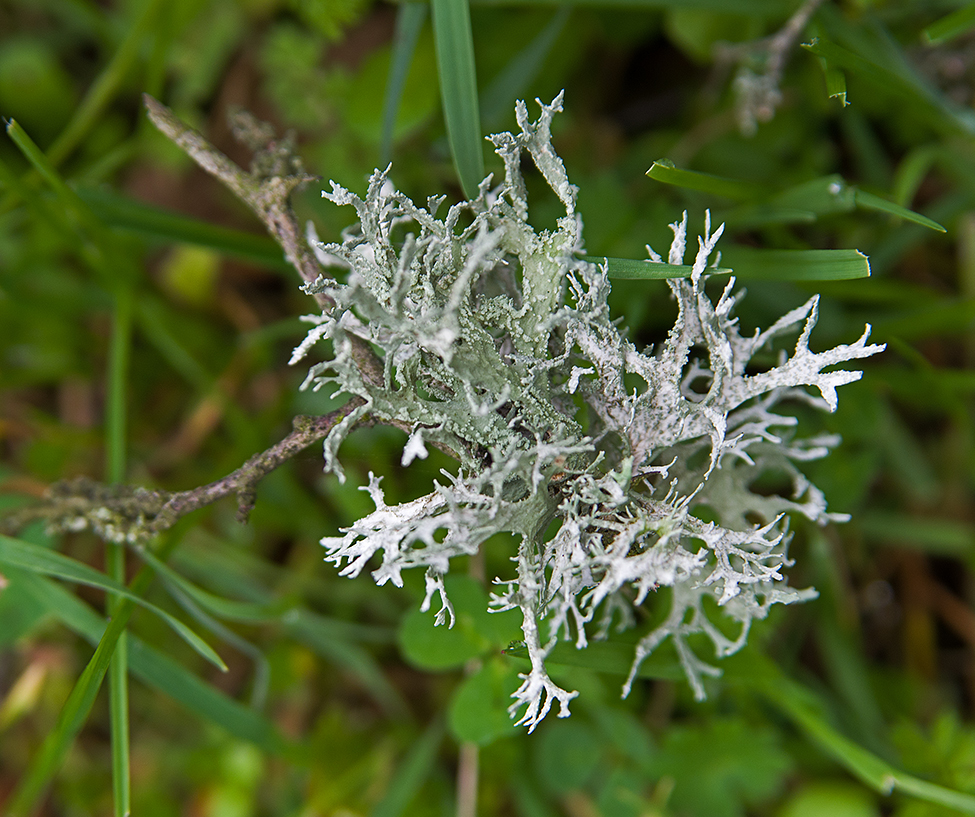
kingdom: Fungi
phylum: Ascomycota
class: Lecanoromycetes
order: Lecanorales
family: Parmeliaceae
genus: Evernia
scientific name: Evernia prunastri
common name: Oak moss
